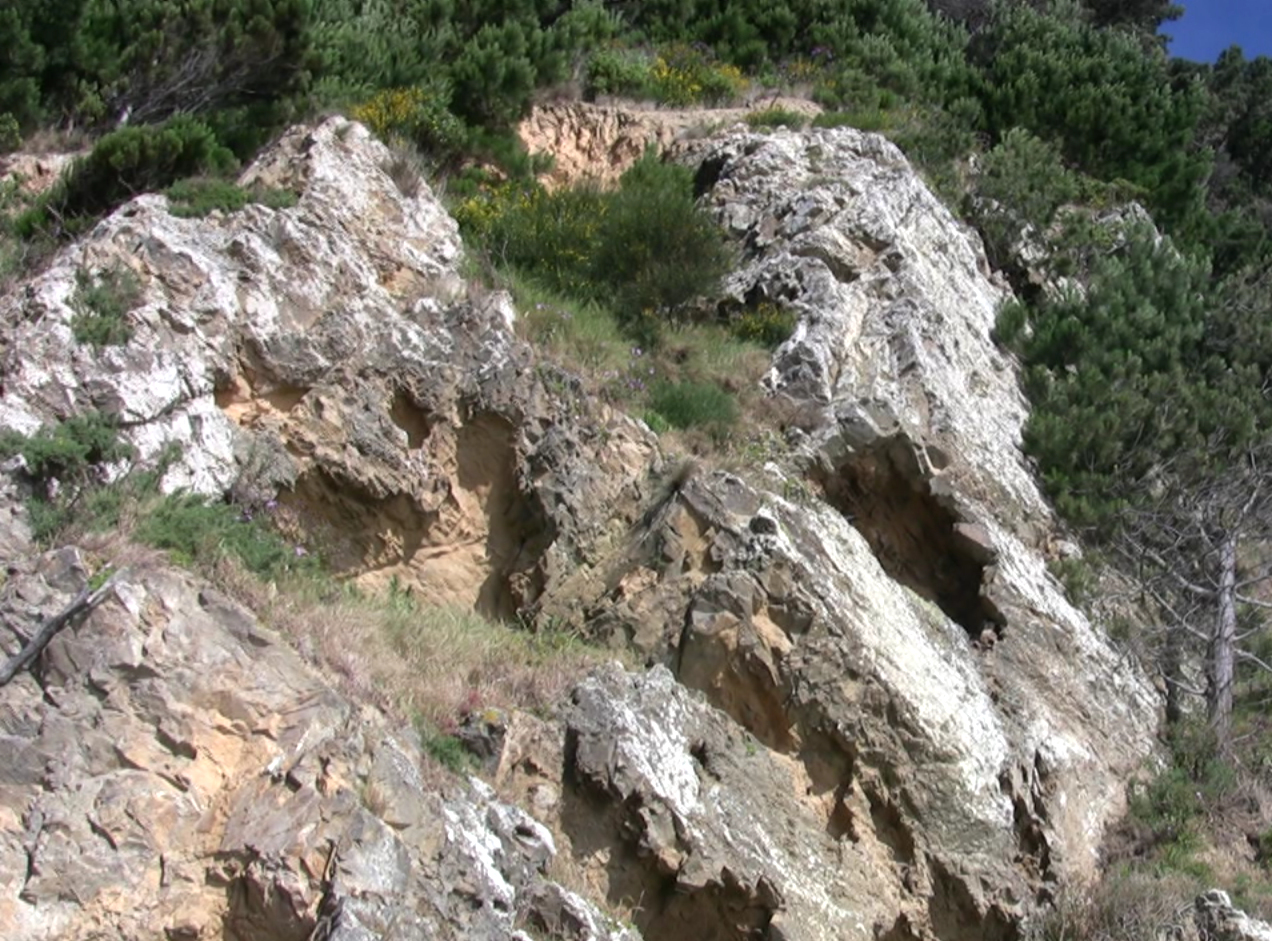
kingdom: Animalia
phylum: Chordata
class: Aves
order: Columbiformes
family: Columbidae
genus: Columba
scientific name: Columba livia
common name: Rock pigeon
